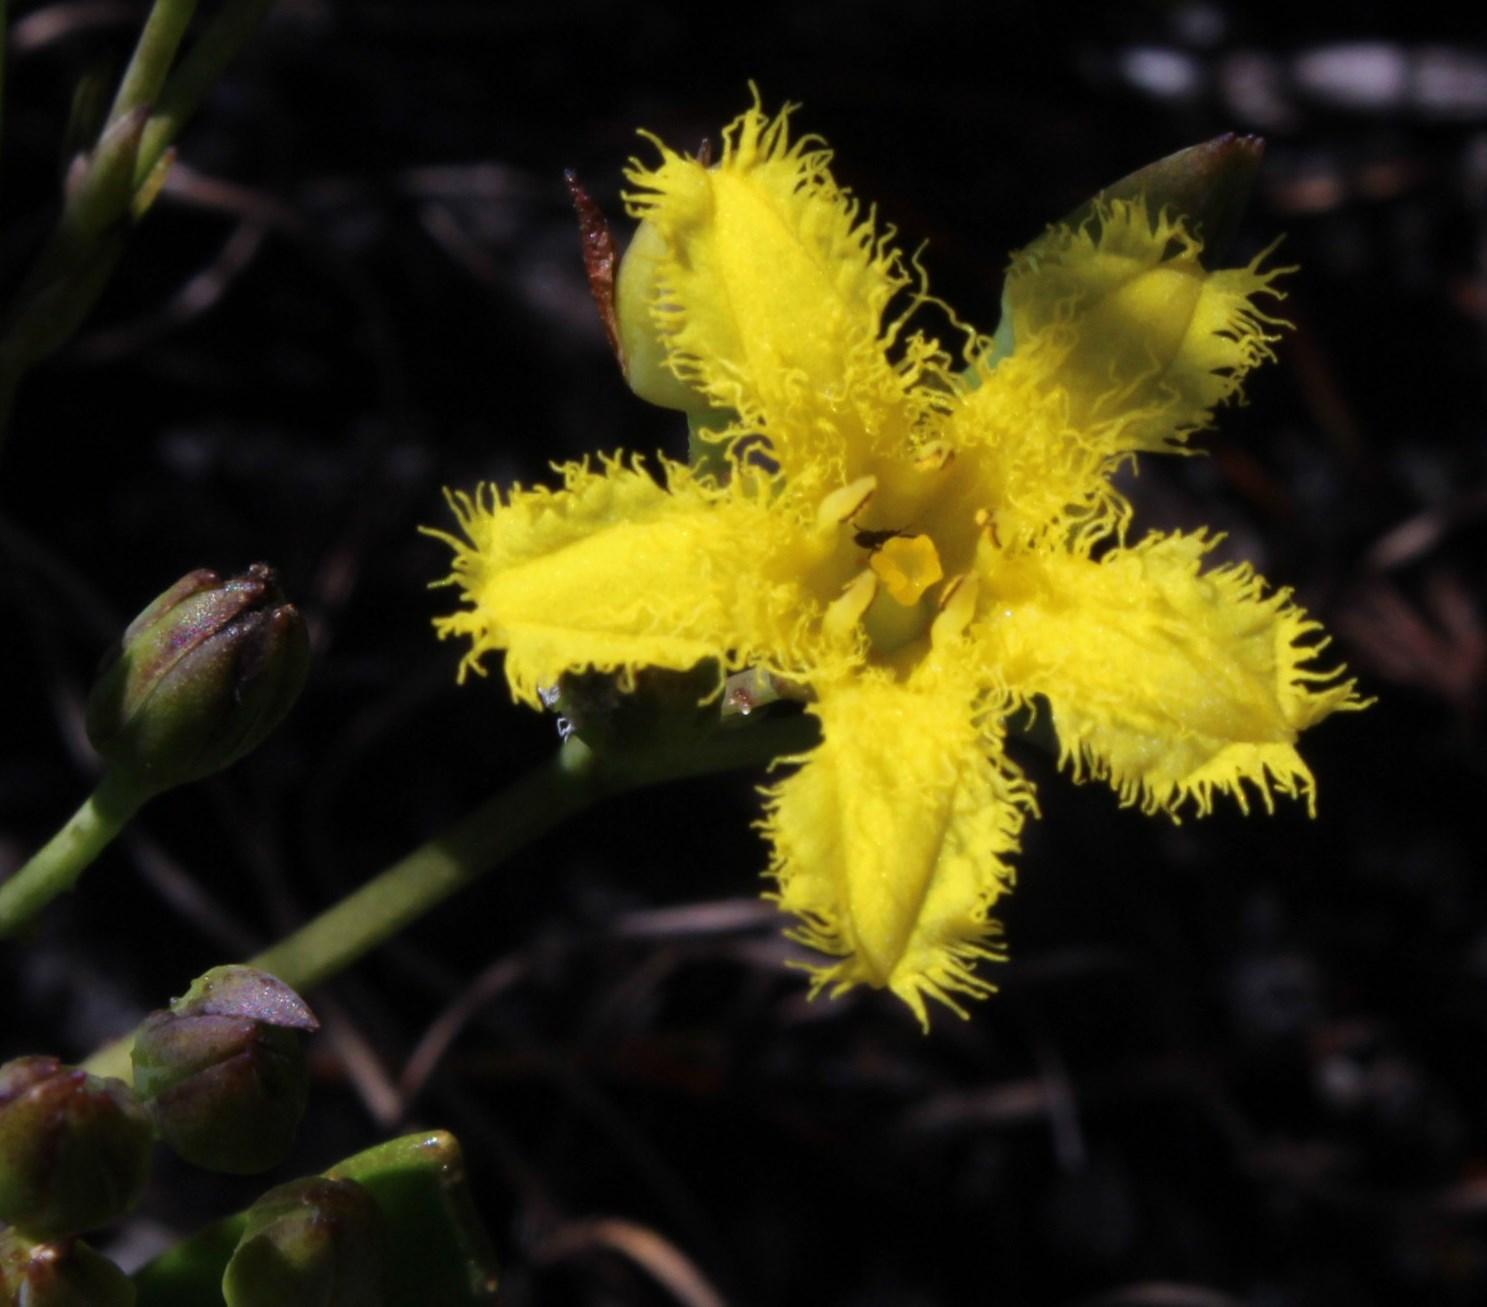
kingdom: Plantae
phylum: Tracheophyta
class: Magnoliopsida
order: Asterales
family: Menyanthaceae
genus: Villarsia
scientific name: Villarsia manningiana
